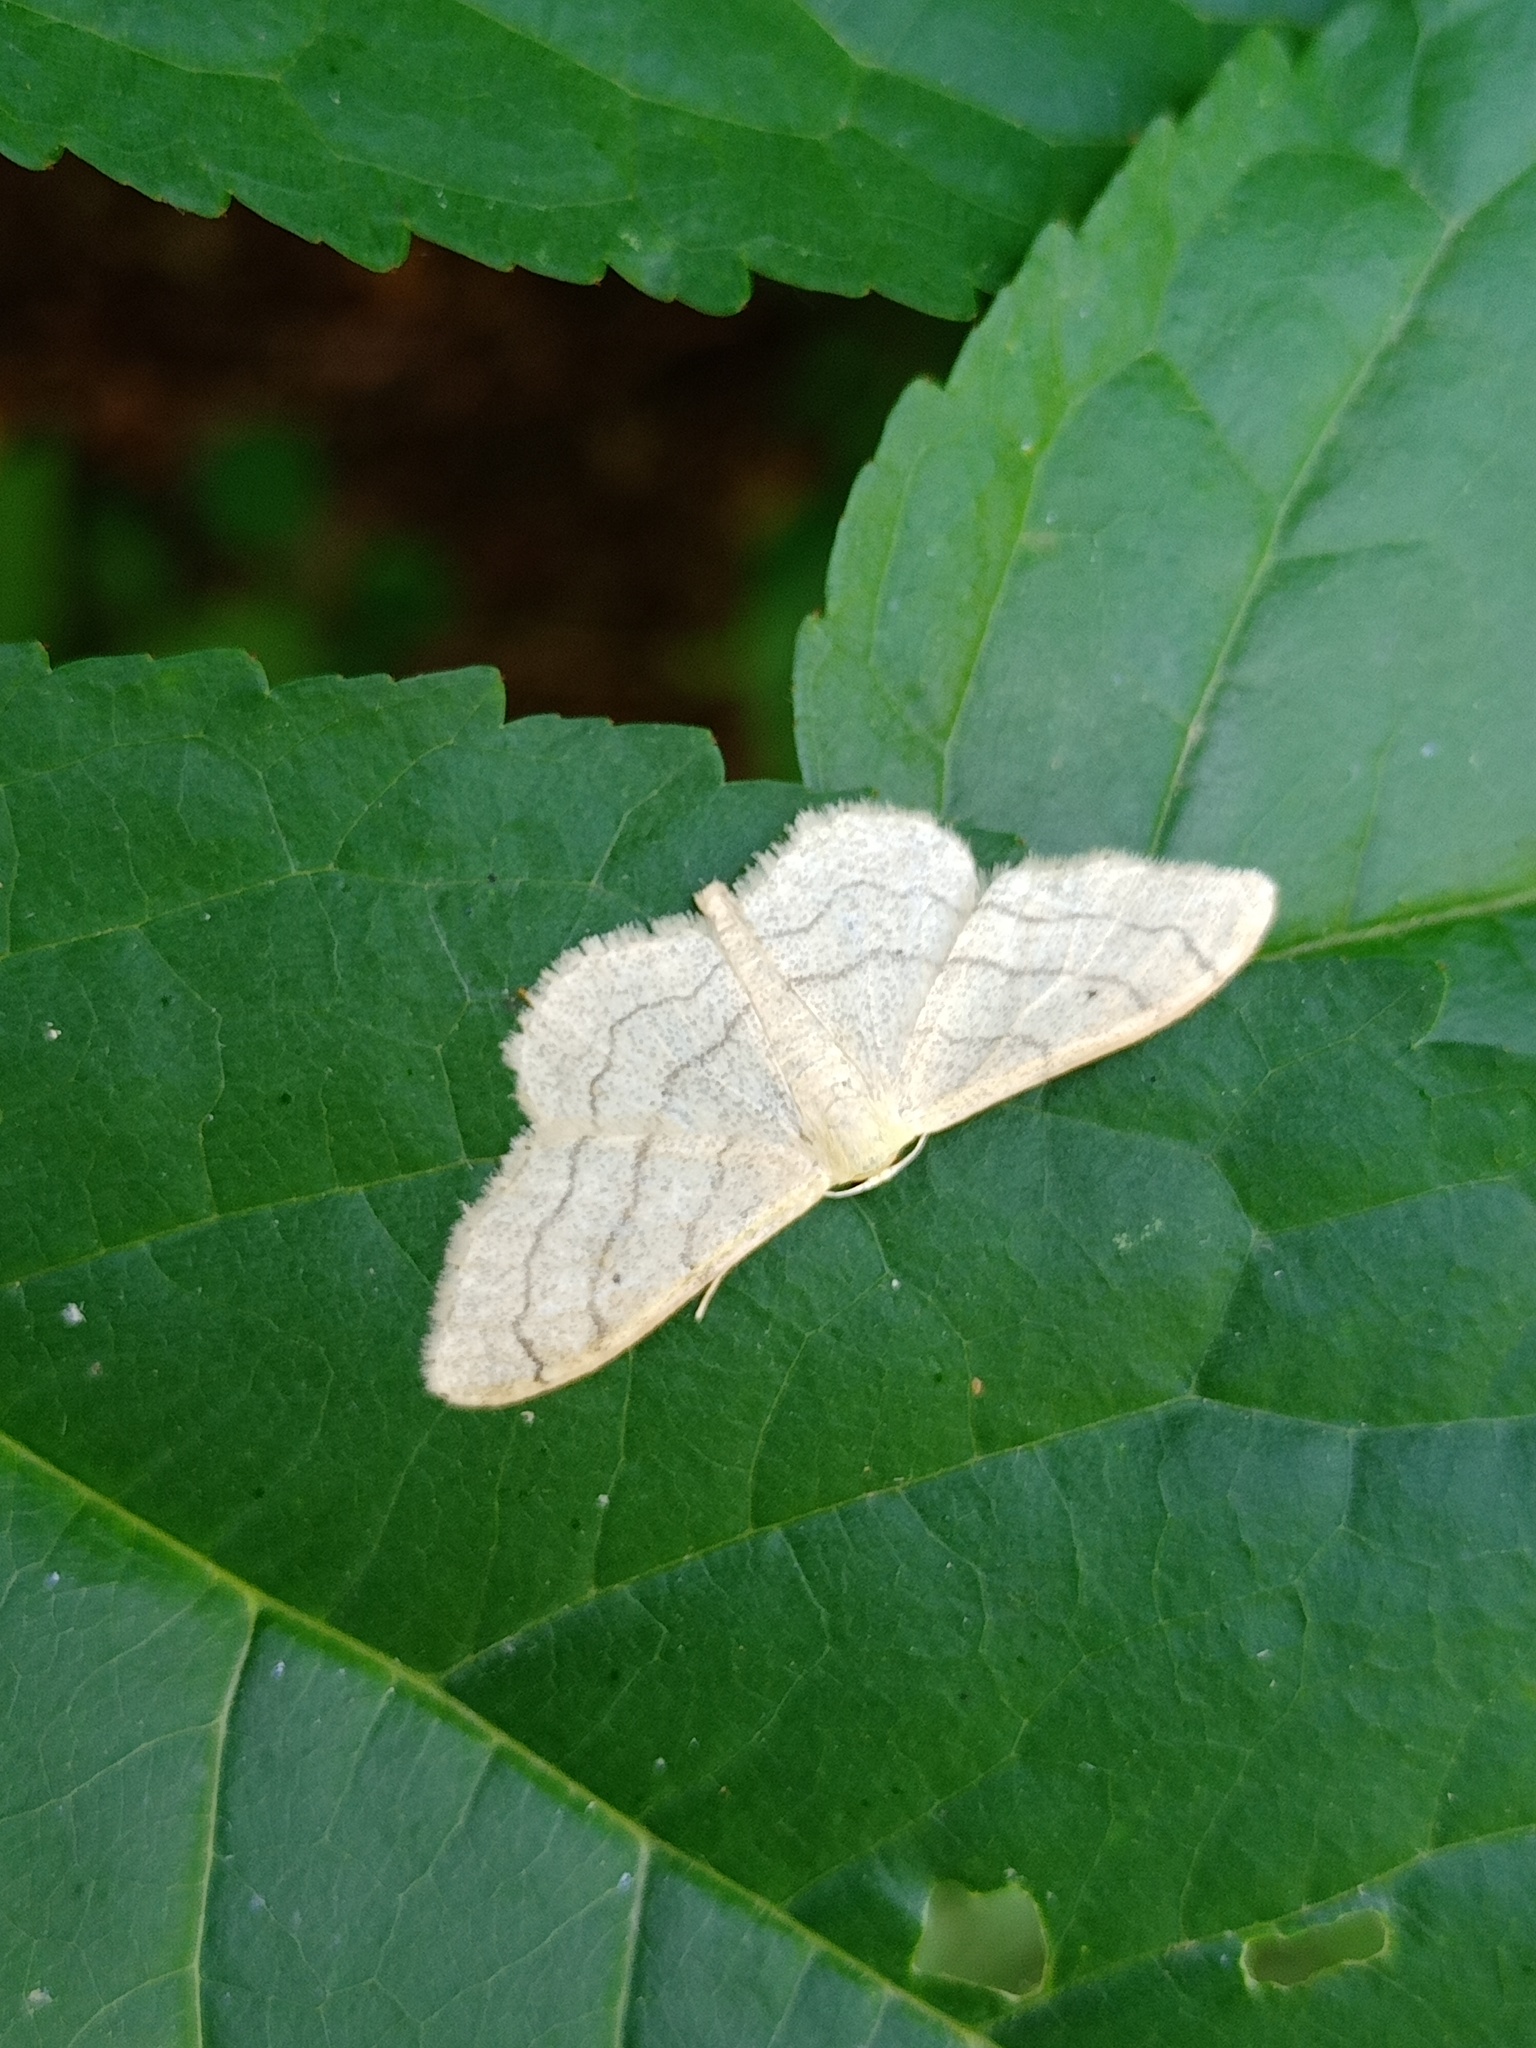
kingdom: Animalia
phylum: Arthropoda
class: Insecta
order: Lepidoptera
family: Geometridae
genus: Idaea
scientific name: Idaea aversata
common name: Riband wave
